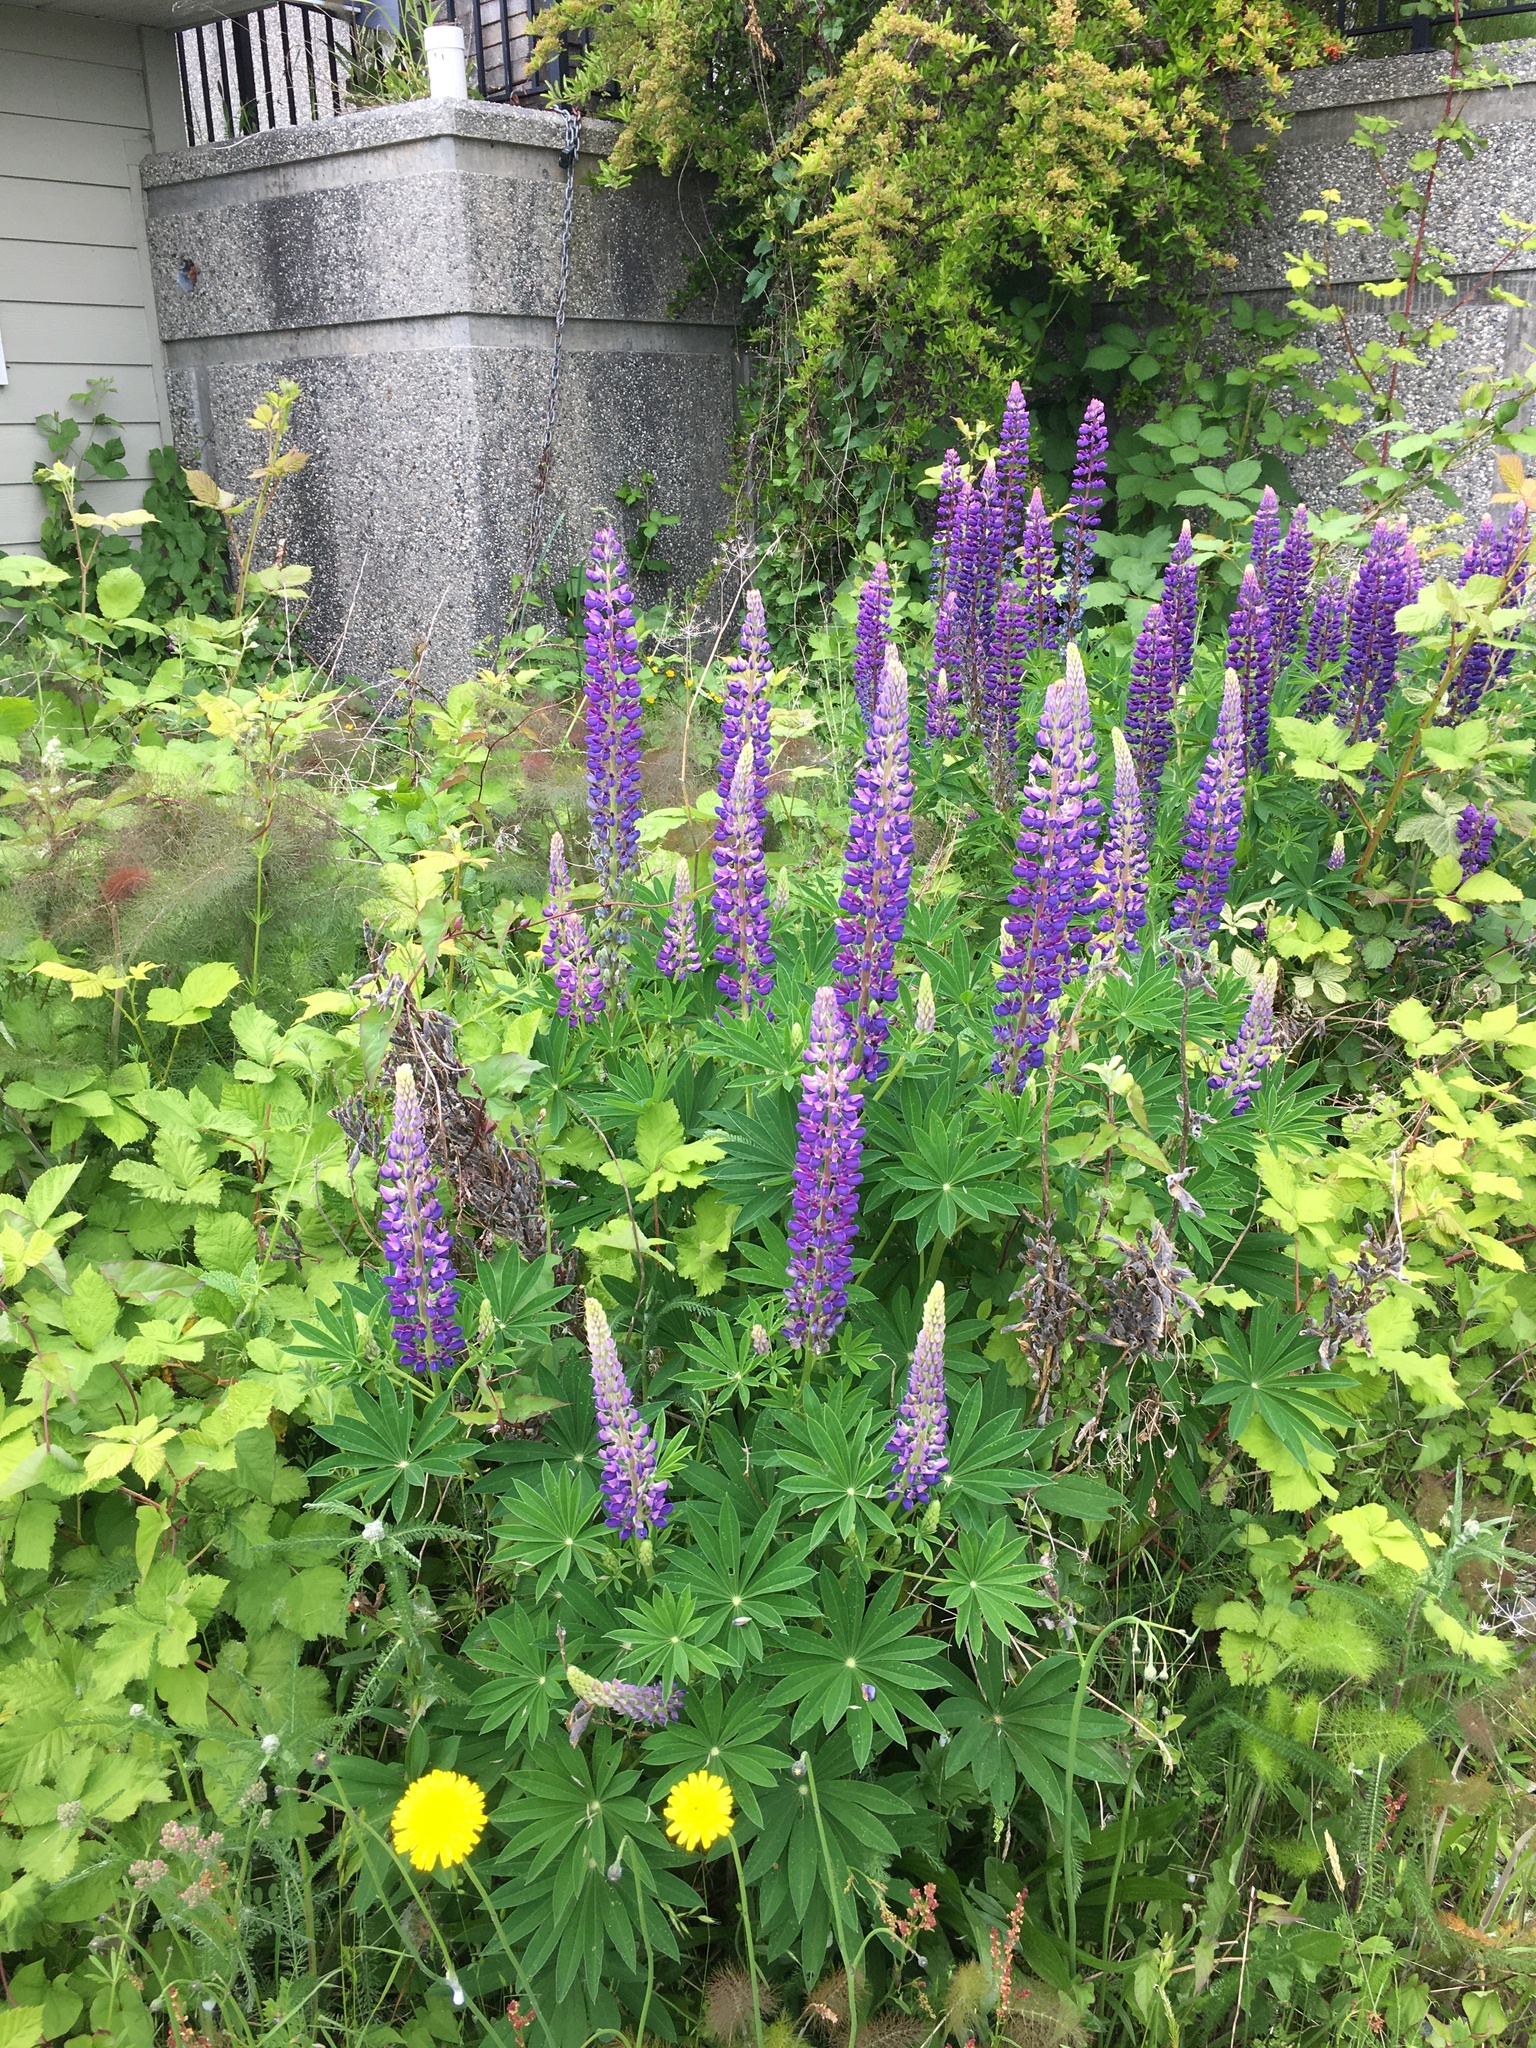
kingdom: Plantae
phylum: Tracheophyta
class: Magnoliopsida
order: Fabales
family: Fabaceae
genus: Lupinus
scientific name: Lupinus polyphyllus
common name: Garden lupin
